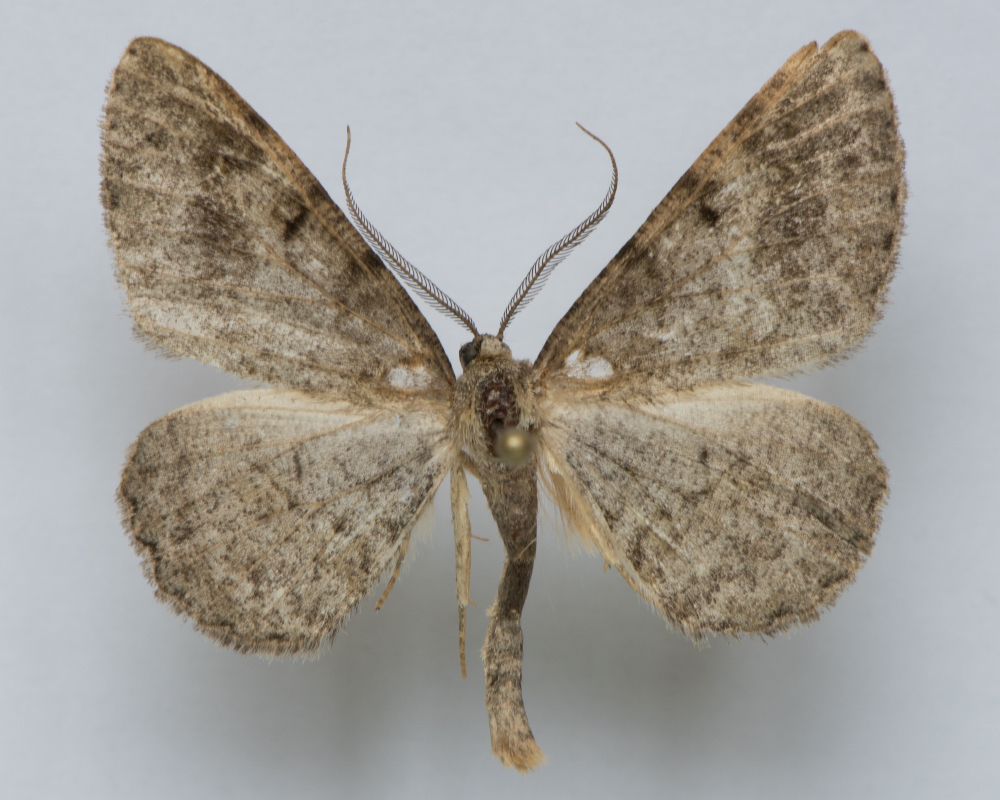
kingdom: Animalia
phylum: Arthropoda
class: Insecta
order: Lepidoptera
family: Geometridae
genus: Alcis
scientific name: Alcis extinctaria
